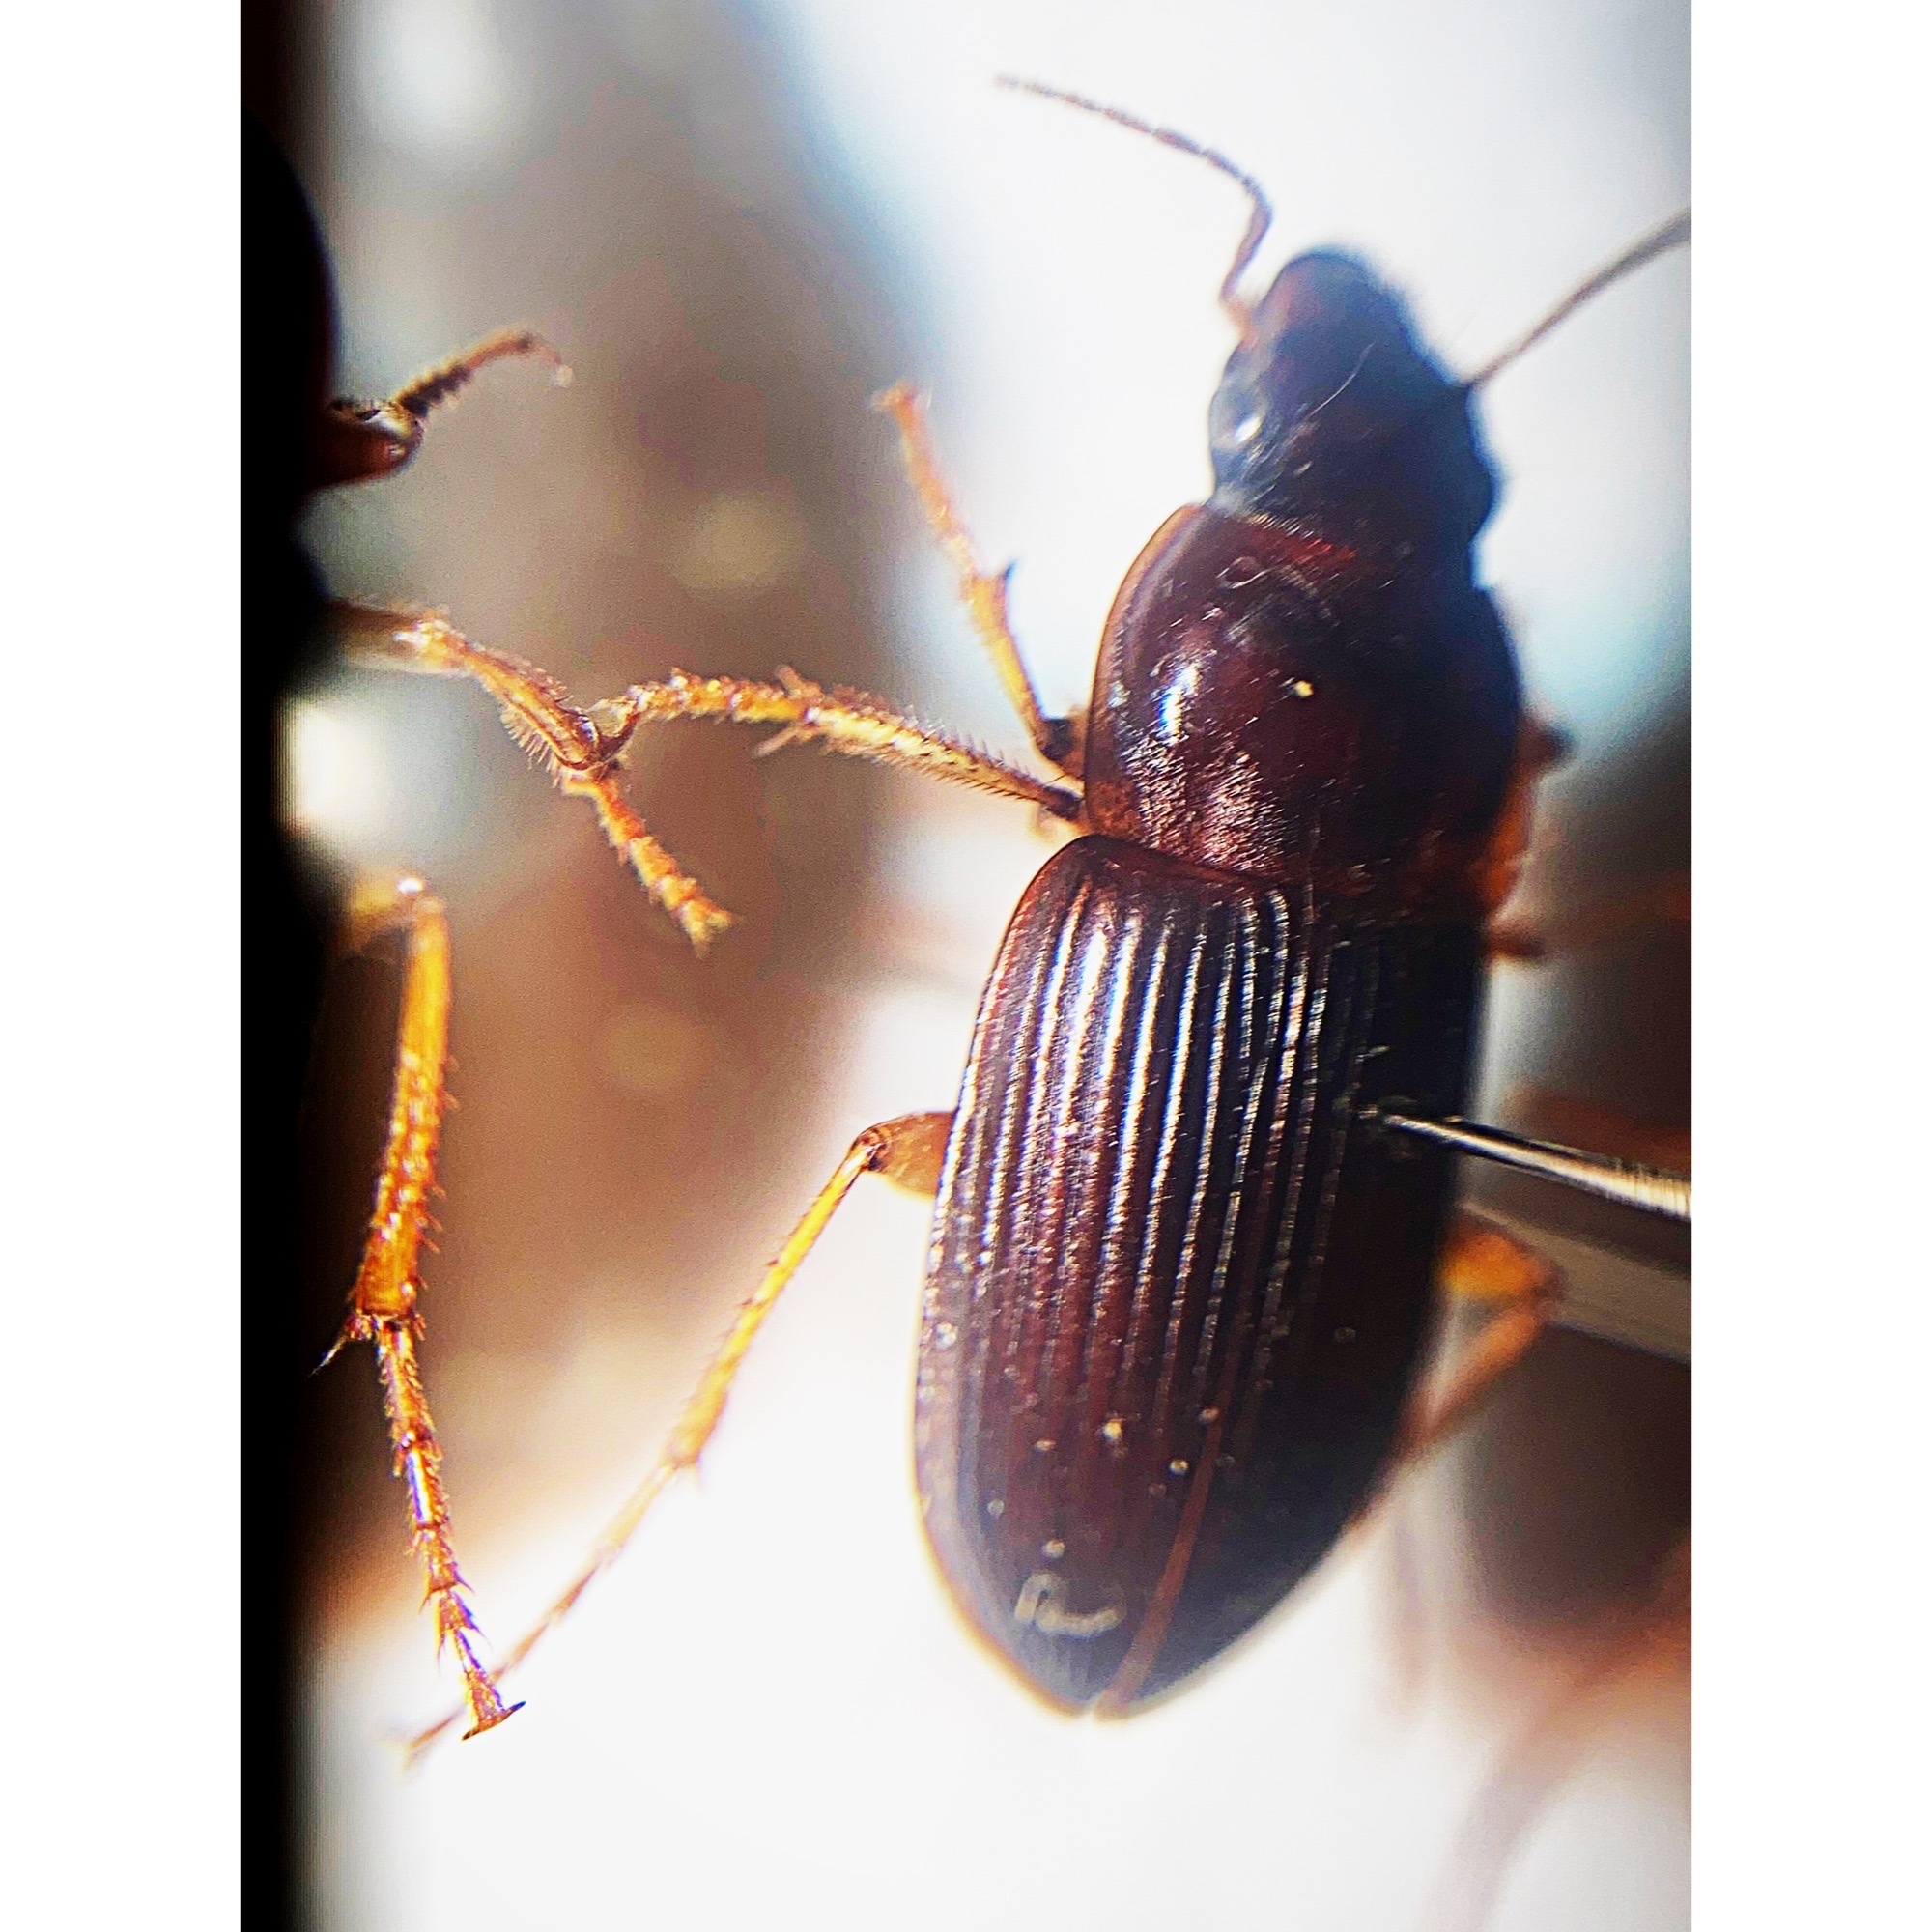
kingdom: Animalia
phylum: Arthropoda
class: Insecta
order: Coleoptera
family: Carabidae
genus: Harpalus
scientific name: Harpalus pensylvanicus
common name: Pennsylvania dingy ground beetle
